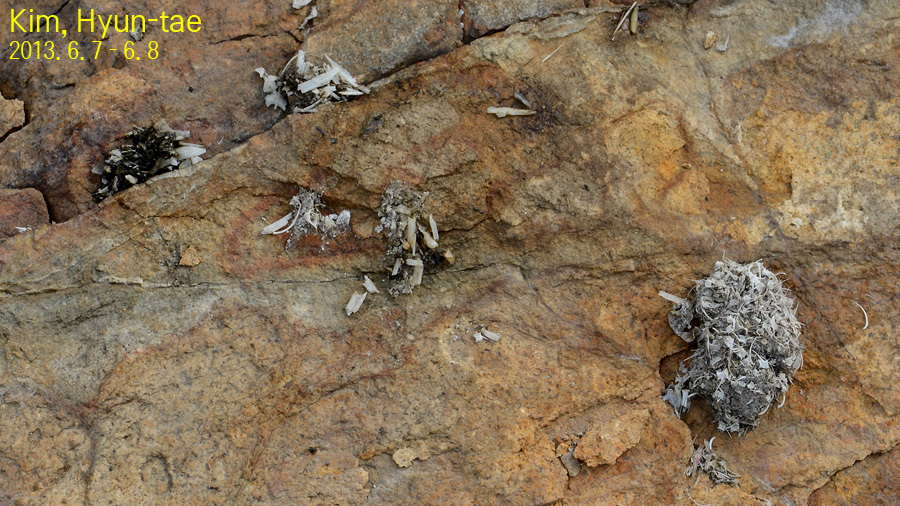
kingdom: Animalia
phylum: Chordata
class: Mammalia
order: Carnivora
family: Mustelidae
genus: Lutra
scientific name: Lutra lutra
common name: European otter
